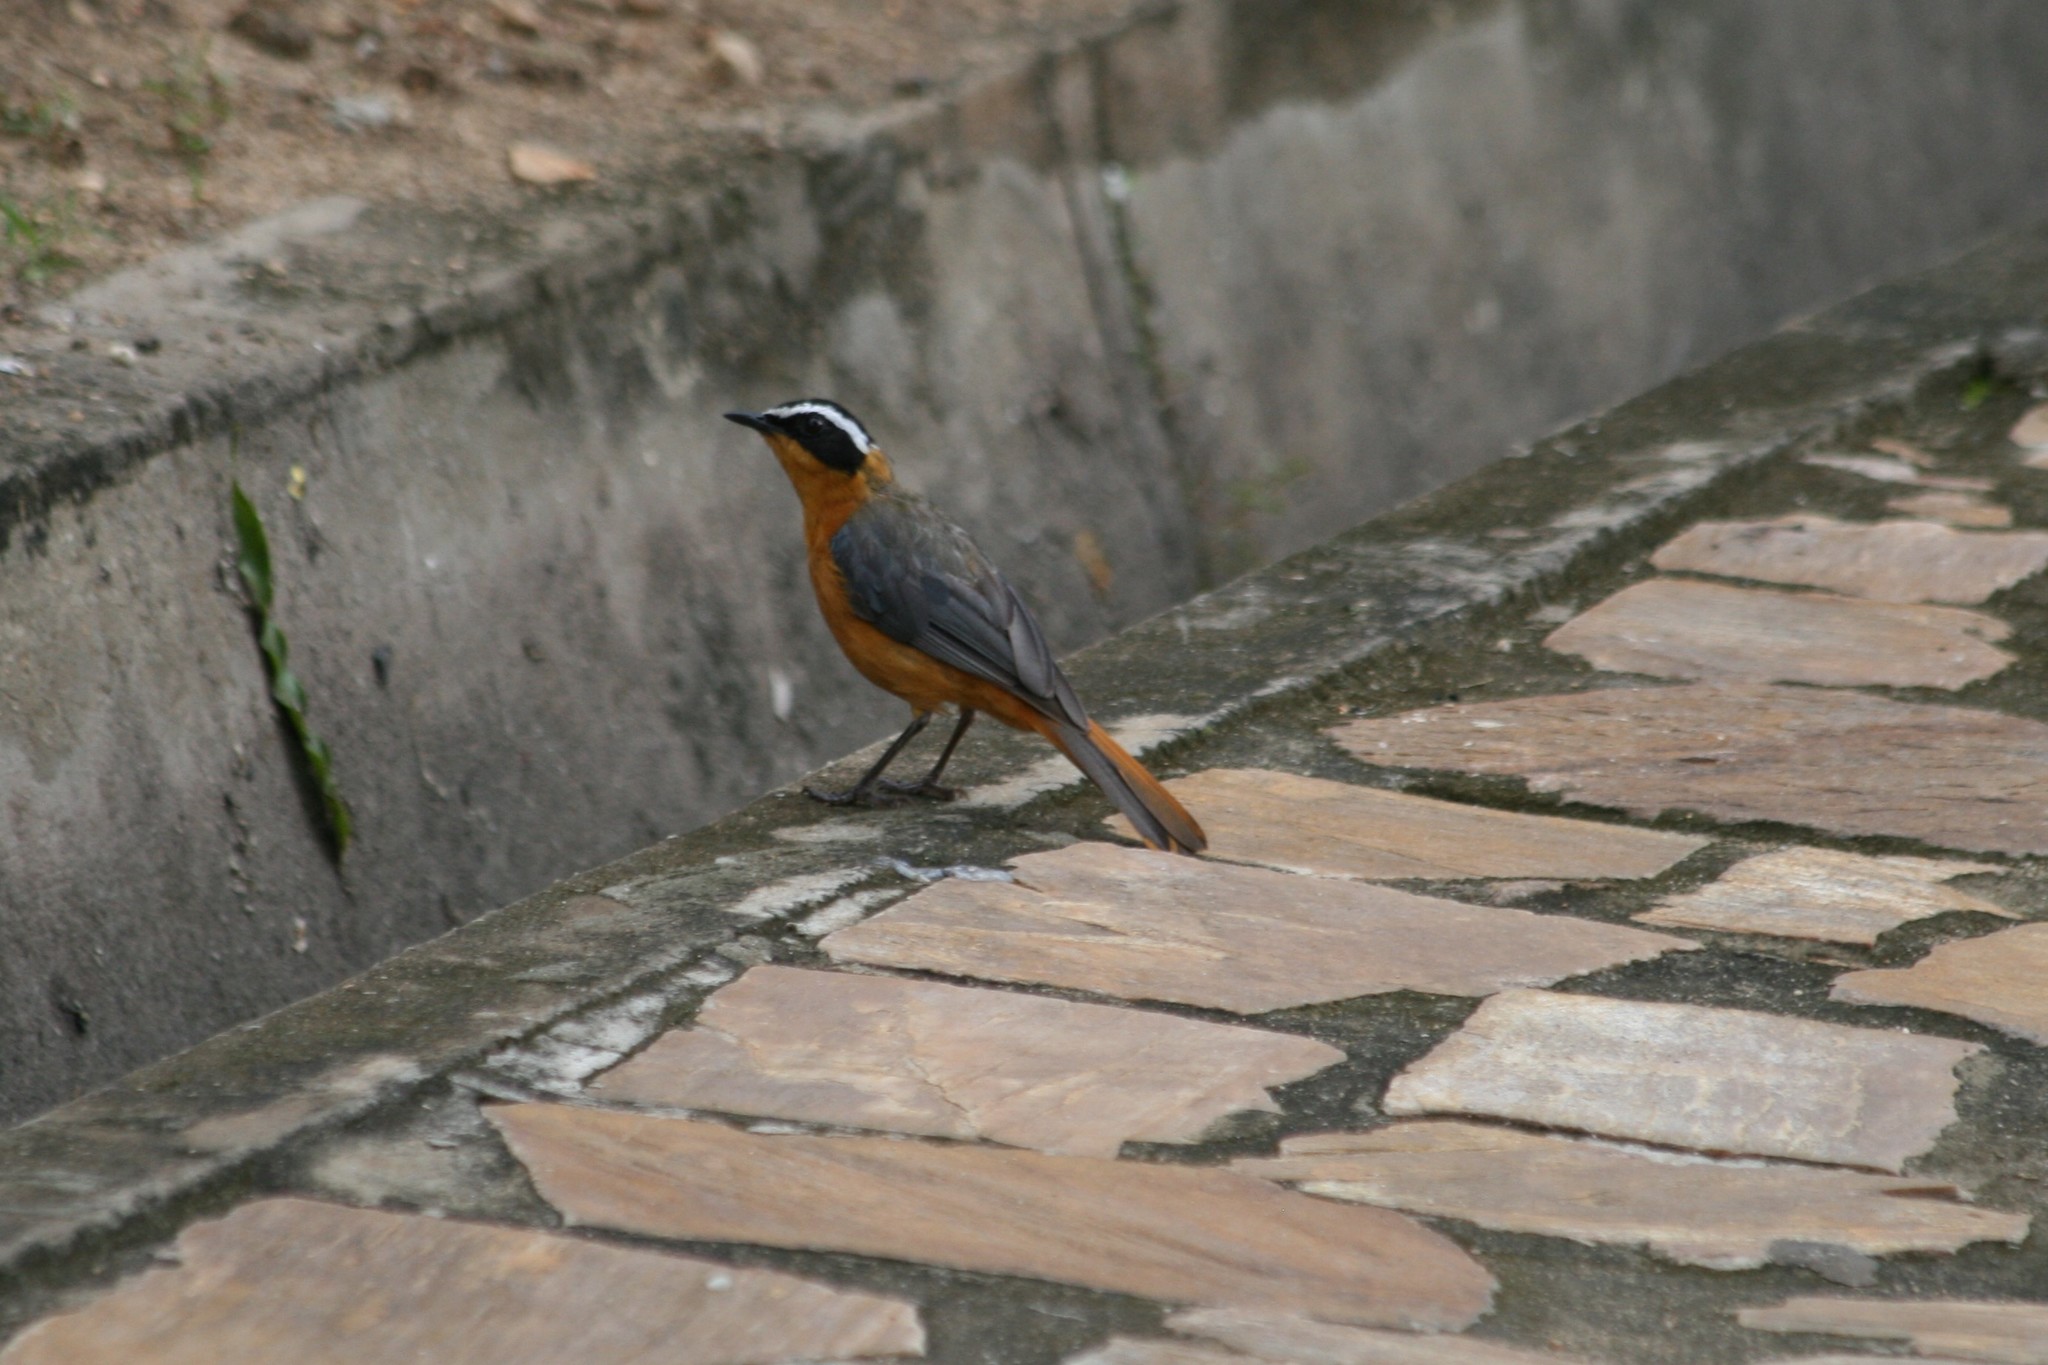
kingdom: Animalia
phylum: Chordata
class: Aves
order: Passeriformes
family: Muscicapidae
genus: Cossypha
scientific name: Cossypha heuglini
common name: White-browed robin-chat
